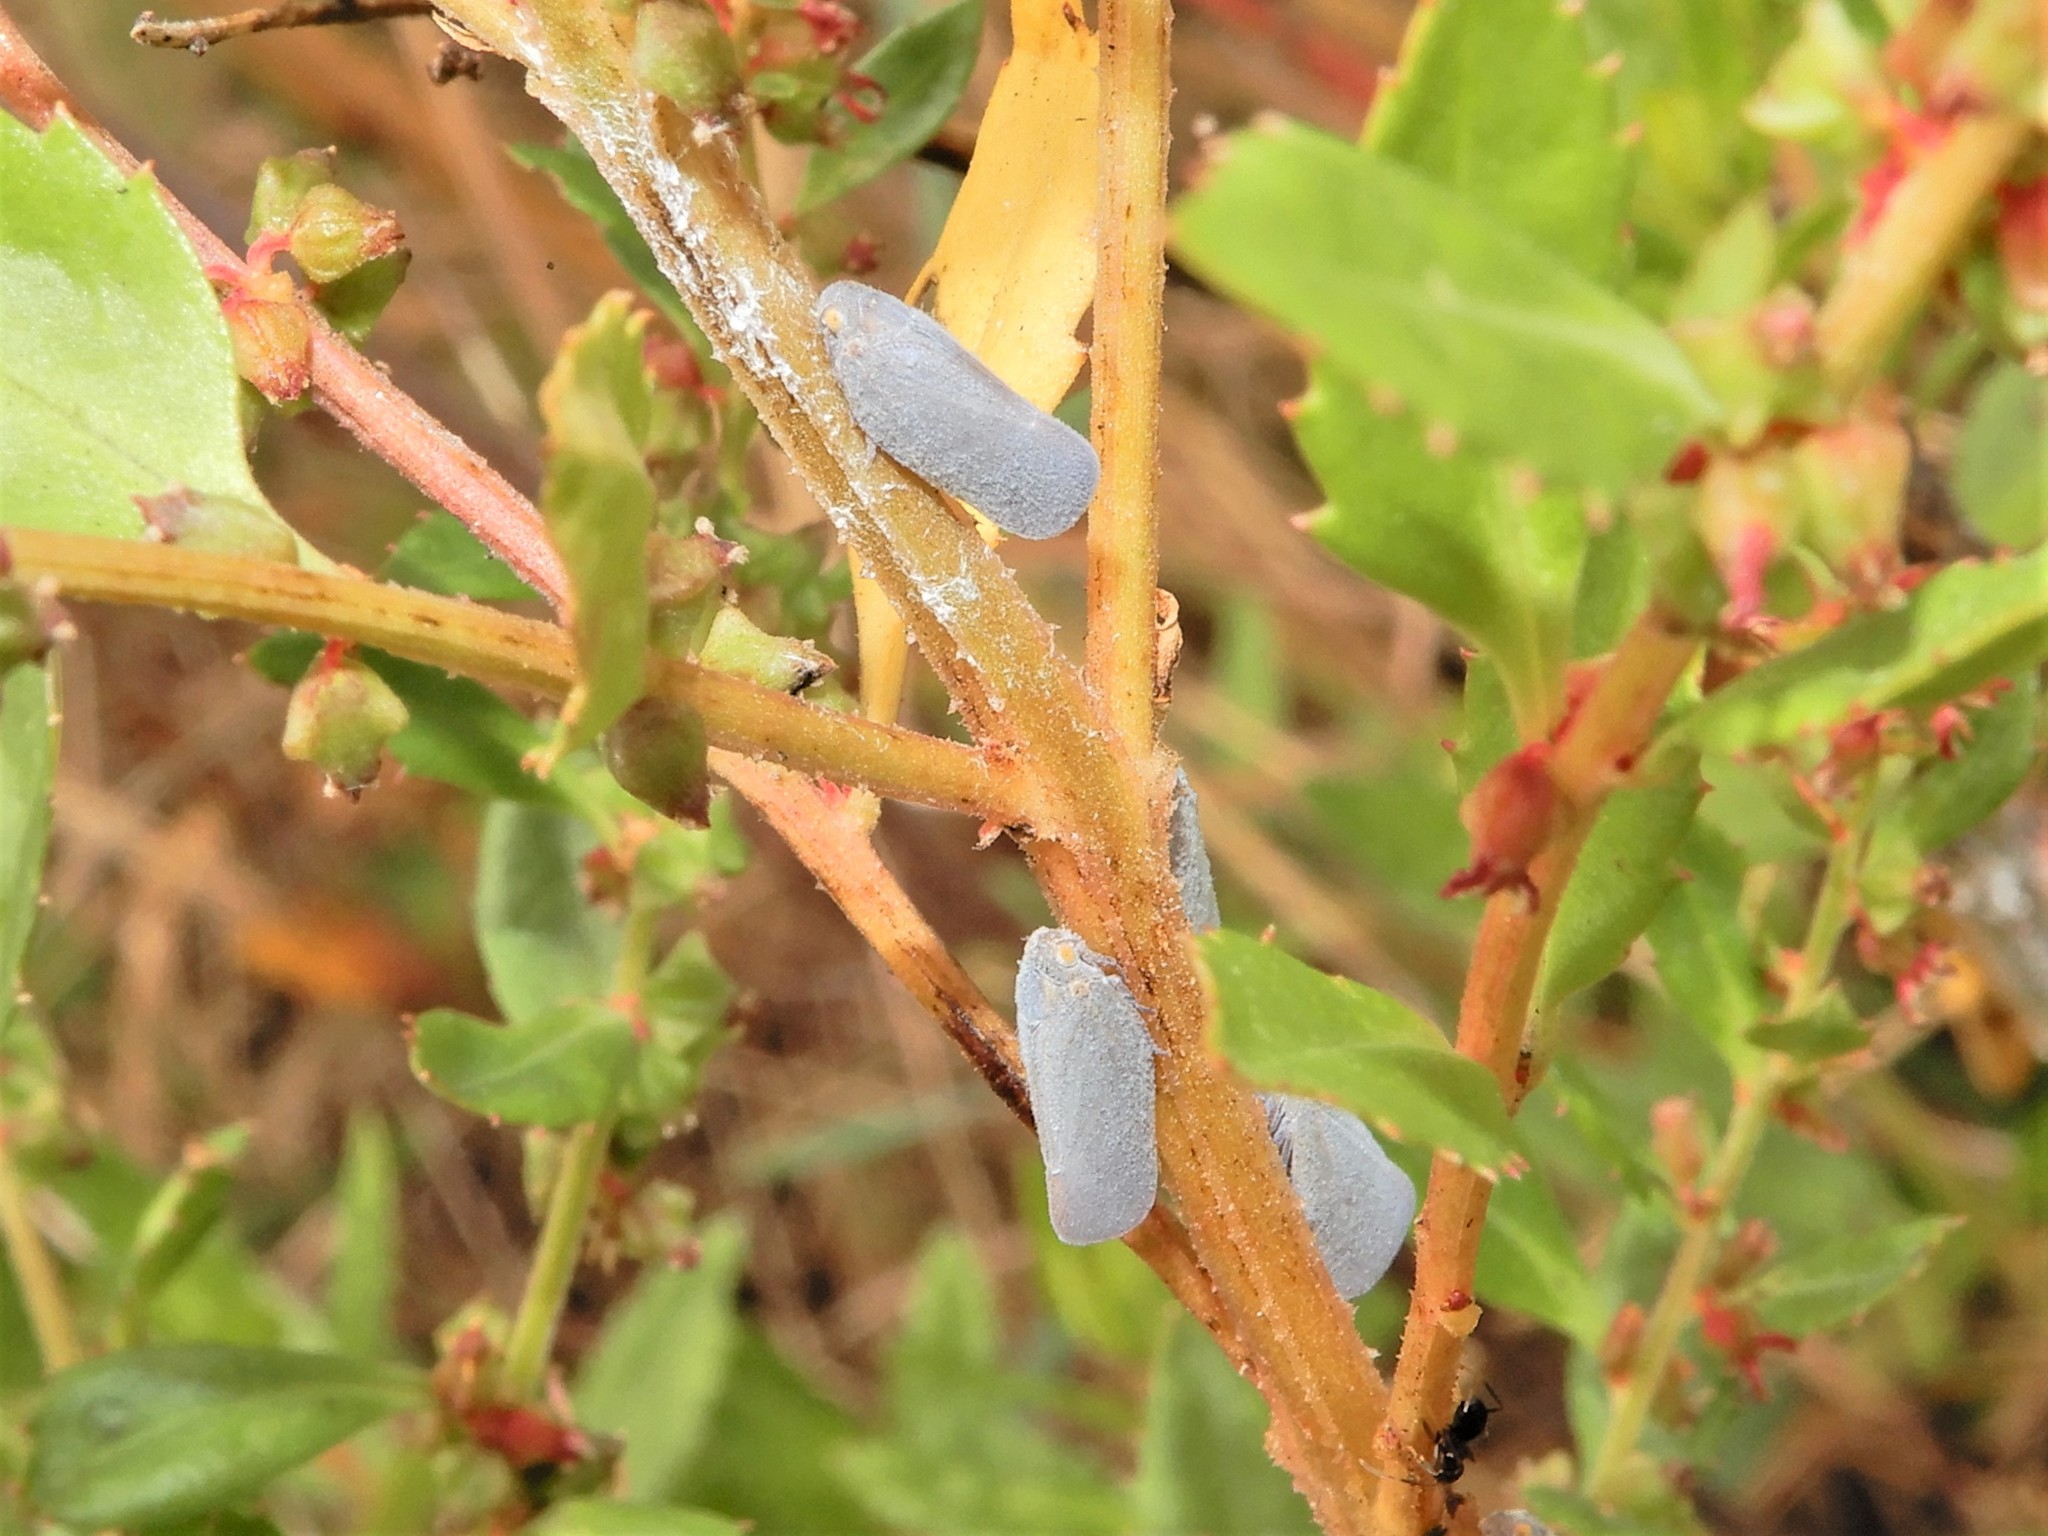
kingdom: Animalia
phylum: Arthropoda
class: Insecta
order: Hemiptera
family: Flatidae
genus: Anzora
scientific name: Anzora unicolor
